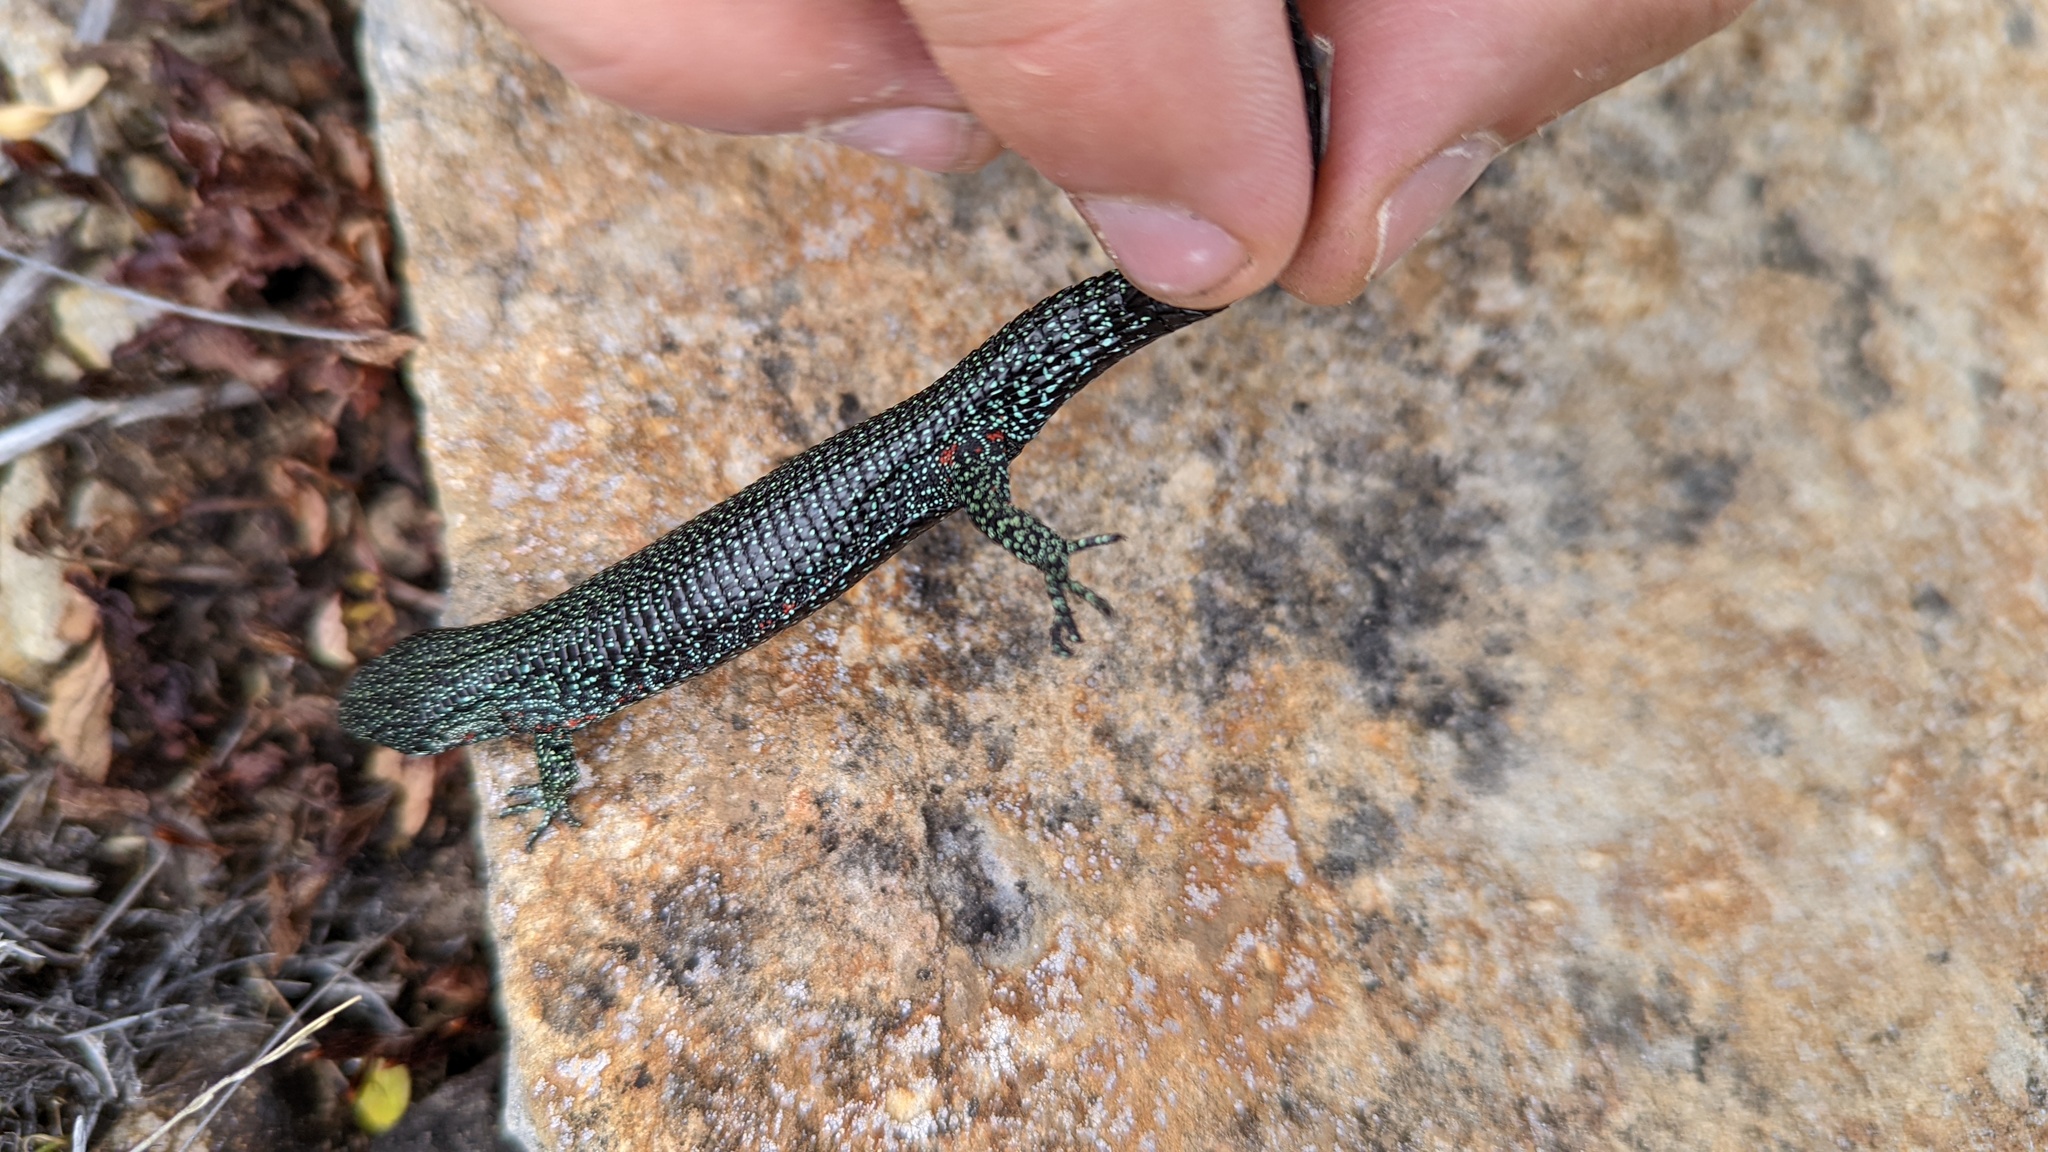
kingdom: Animalia
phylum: Chordata
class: Squamata
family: Anguidae
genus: Abronia
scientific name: Abronia monticola
